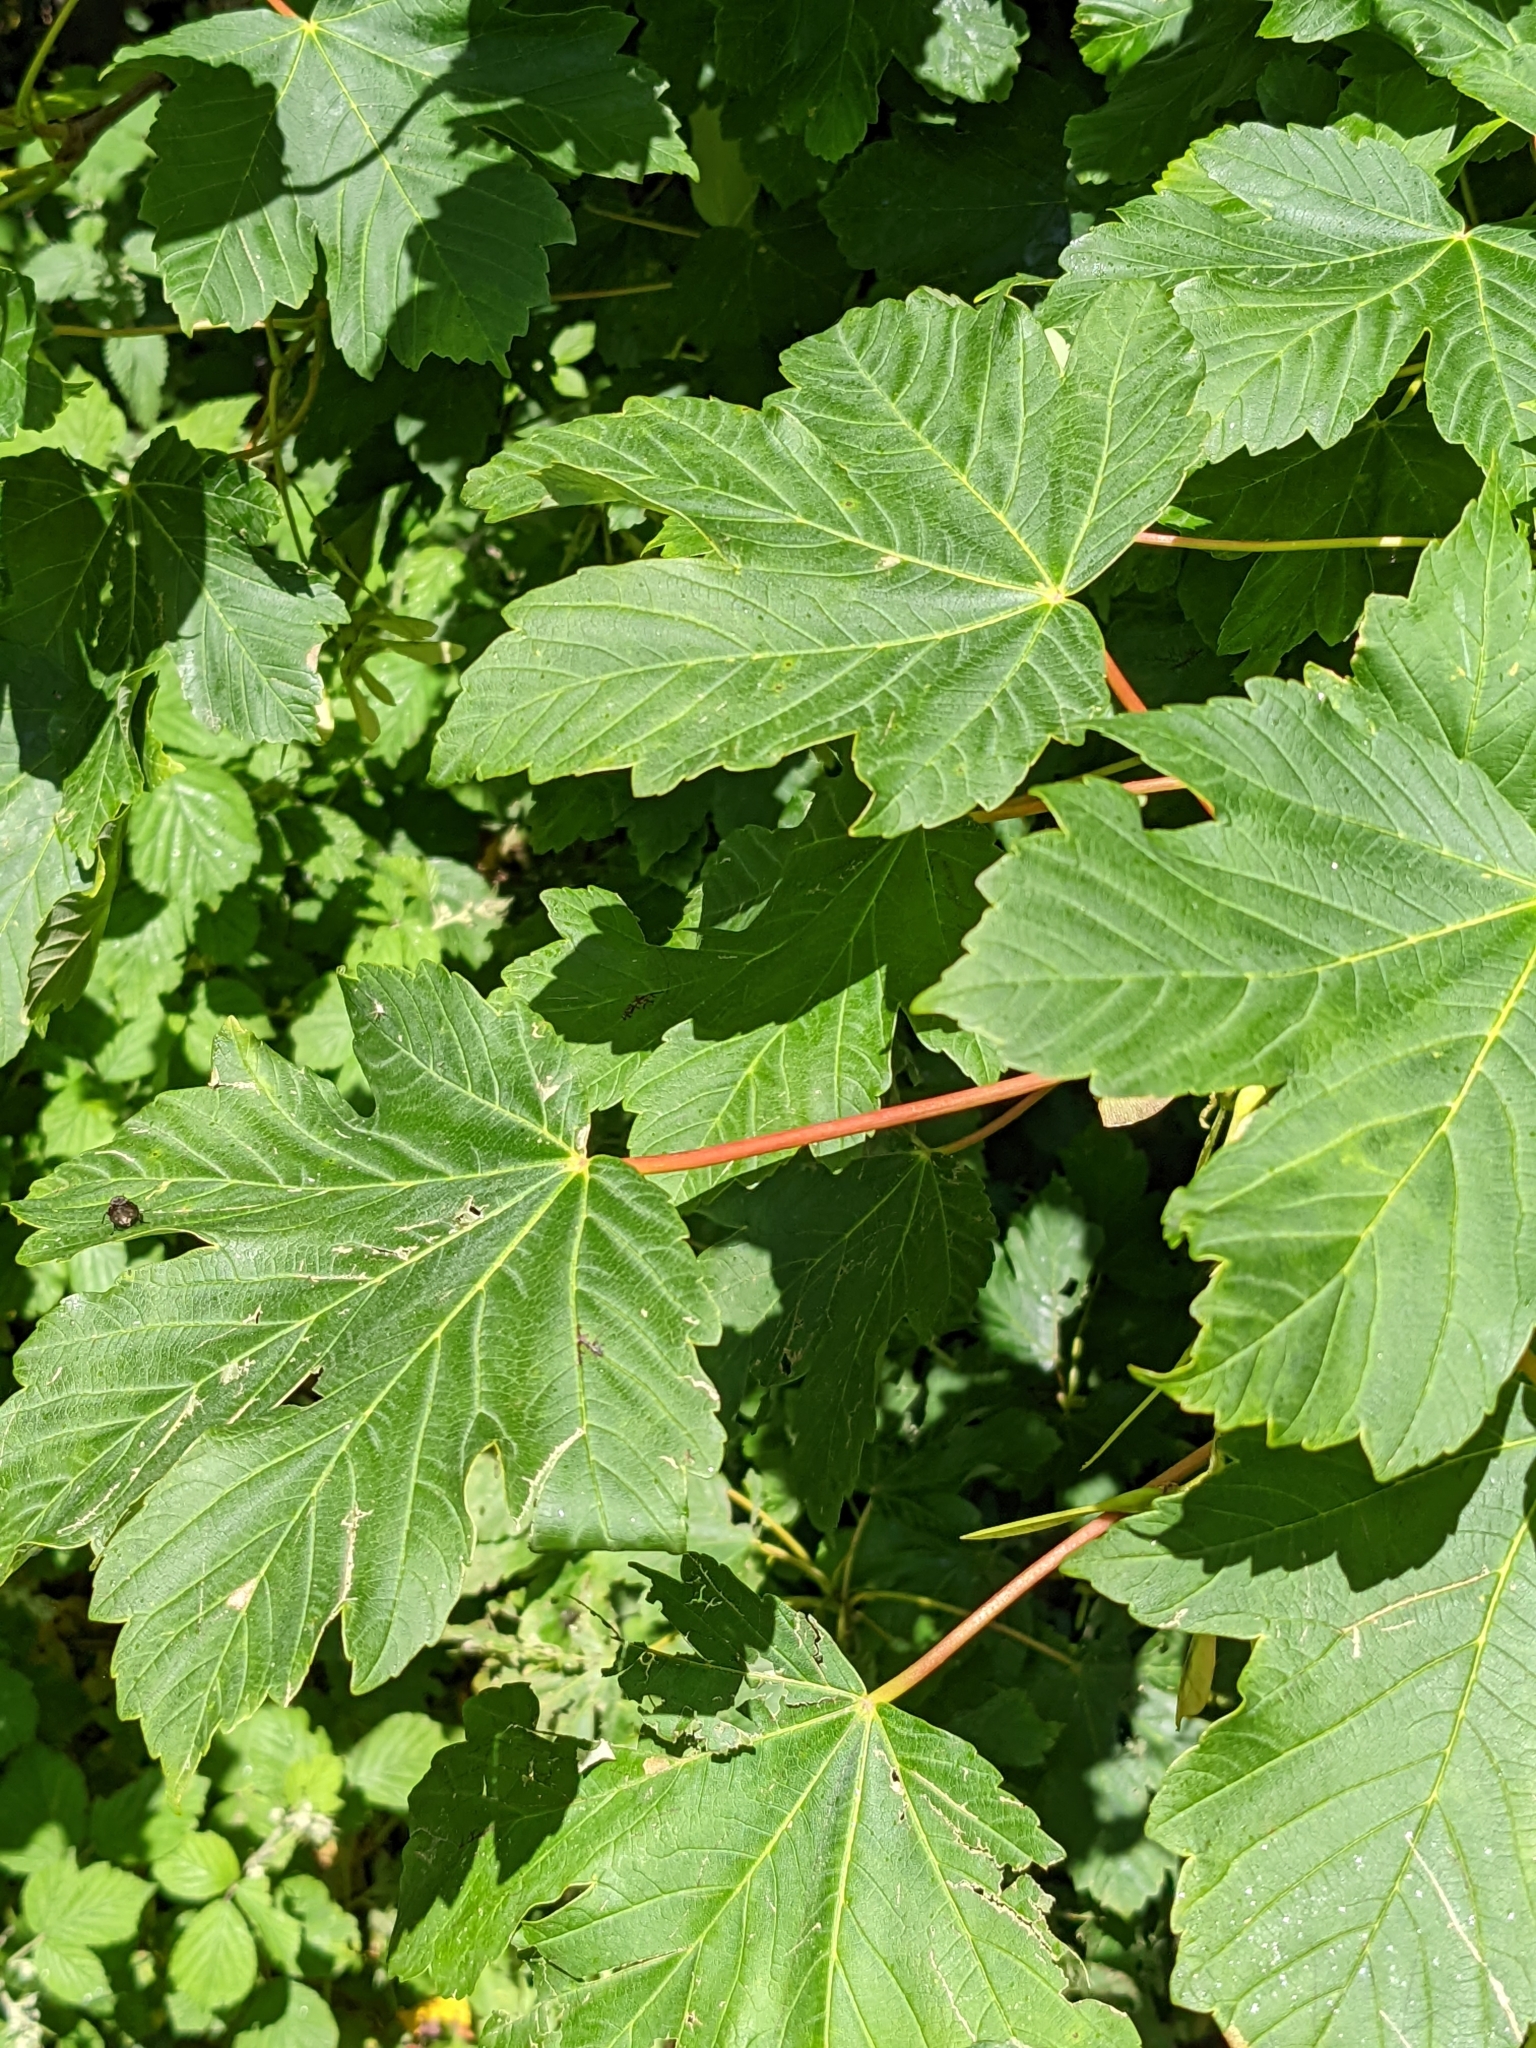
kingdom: Plantae
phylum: Tracheophyta
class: Magnoliopsida
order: Sapindales
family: Sapindaceae
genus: Acer
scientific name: Acer pseudoplatanus
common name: Sycamore
